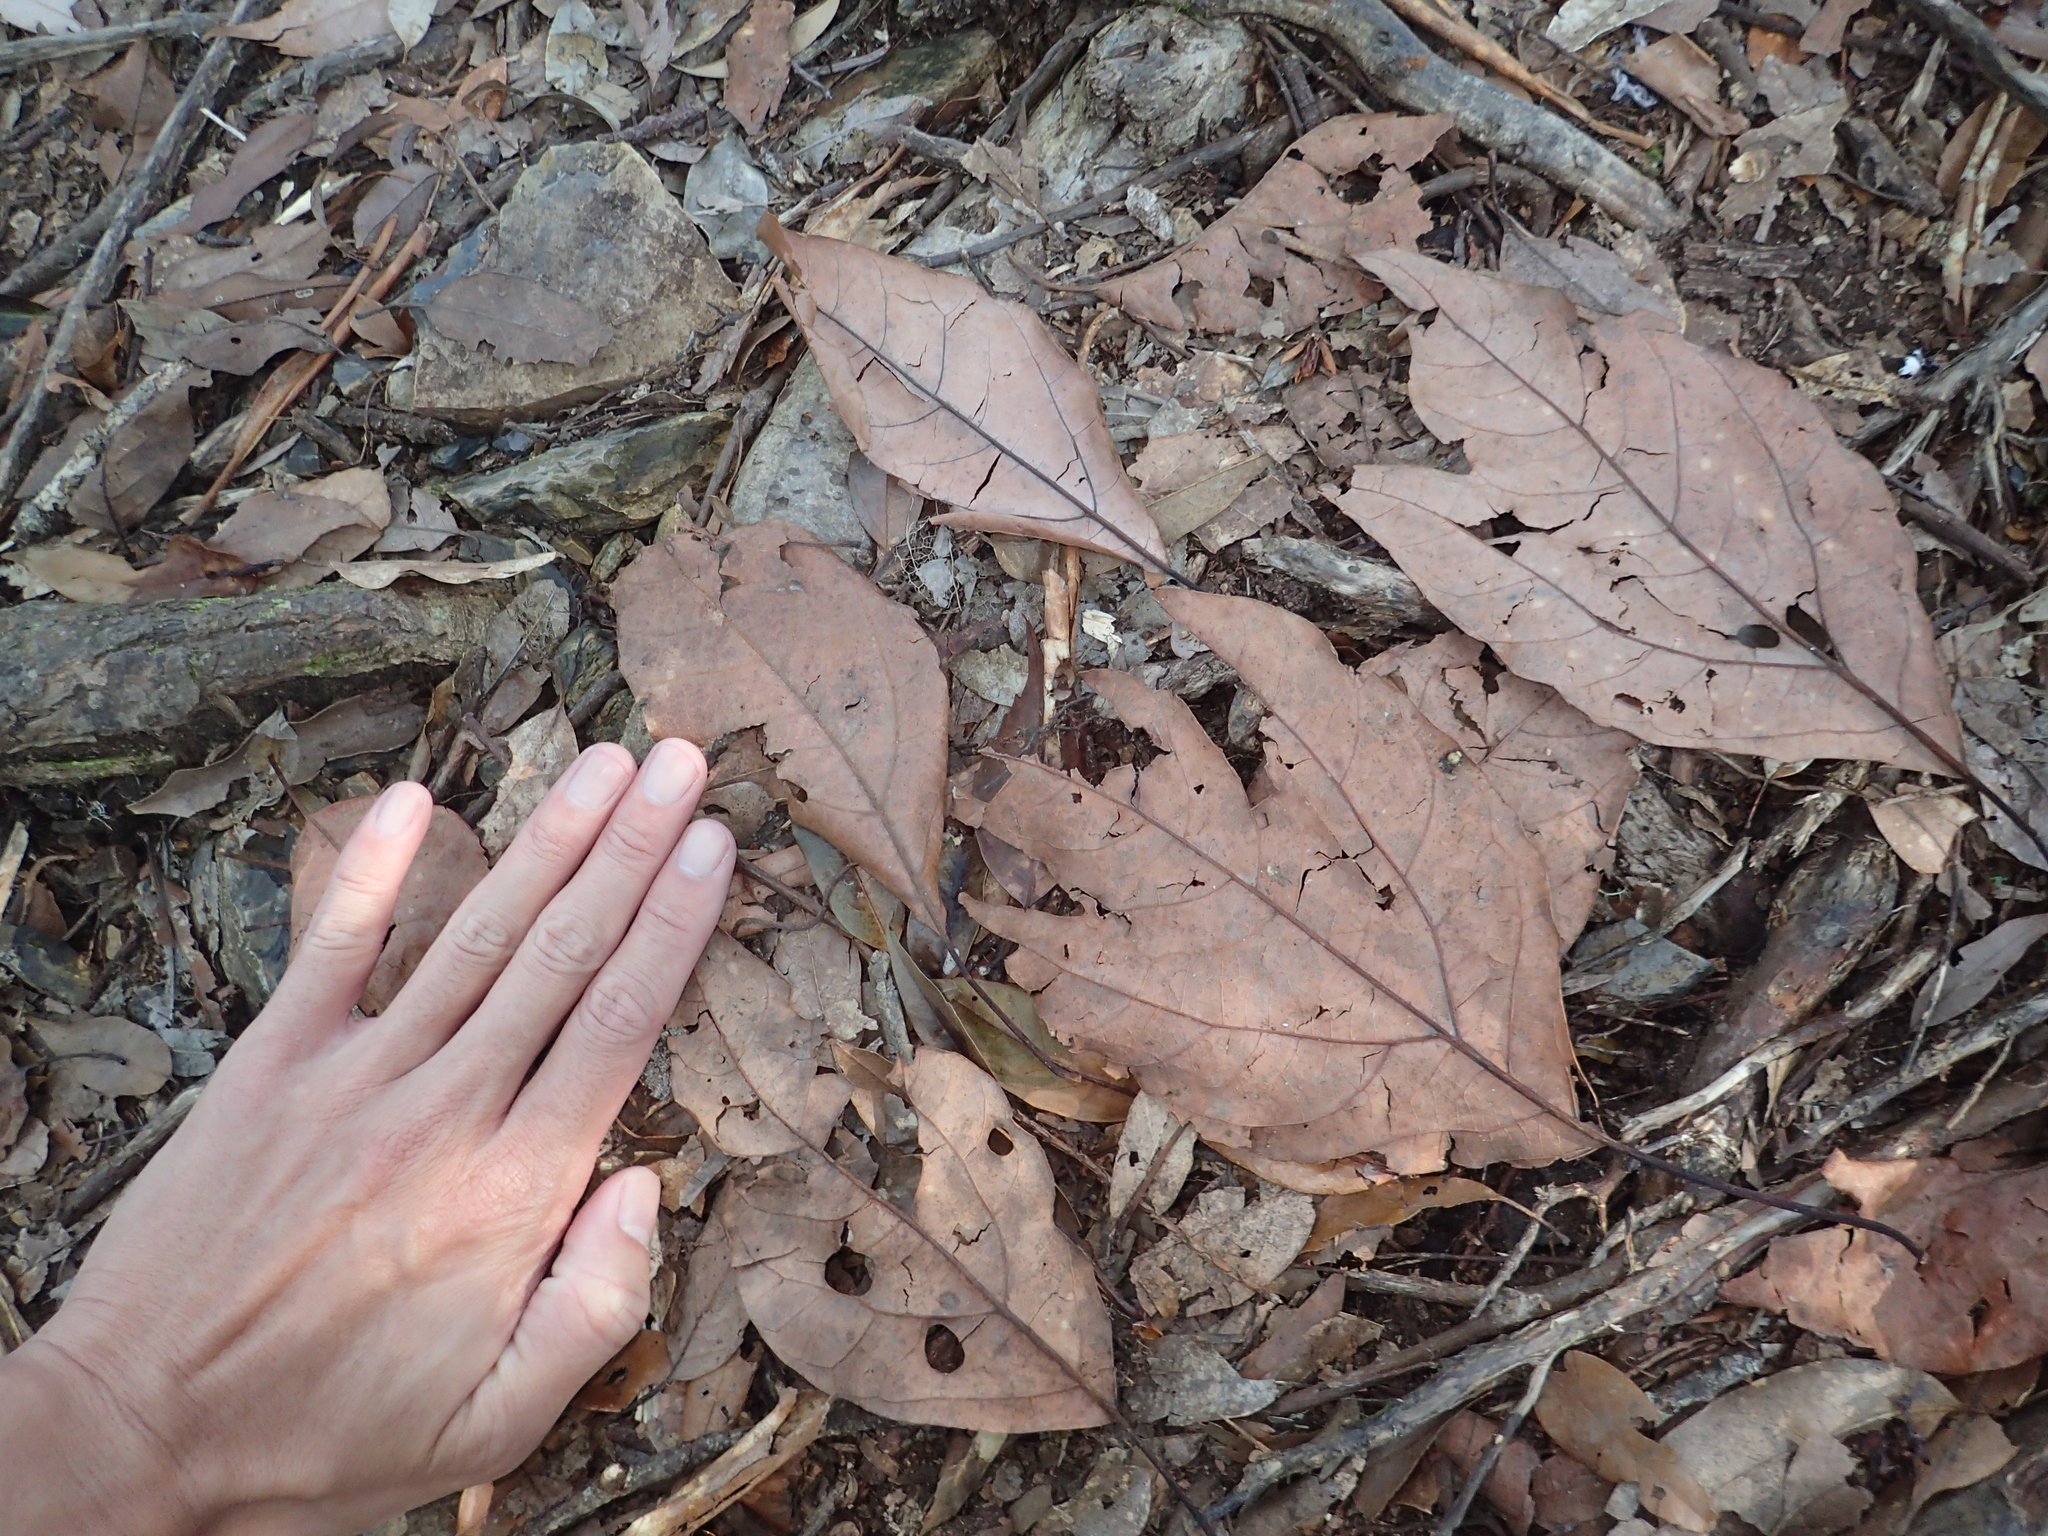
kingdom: Plantae
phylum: Tracheophyta
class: Magnoliopsida
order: Laurales
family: Lauraceae
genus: Sassafras
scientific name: Sassafras randaiense
